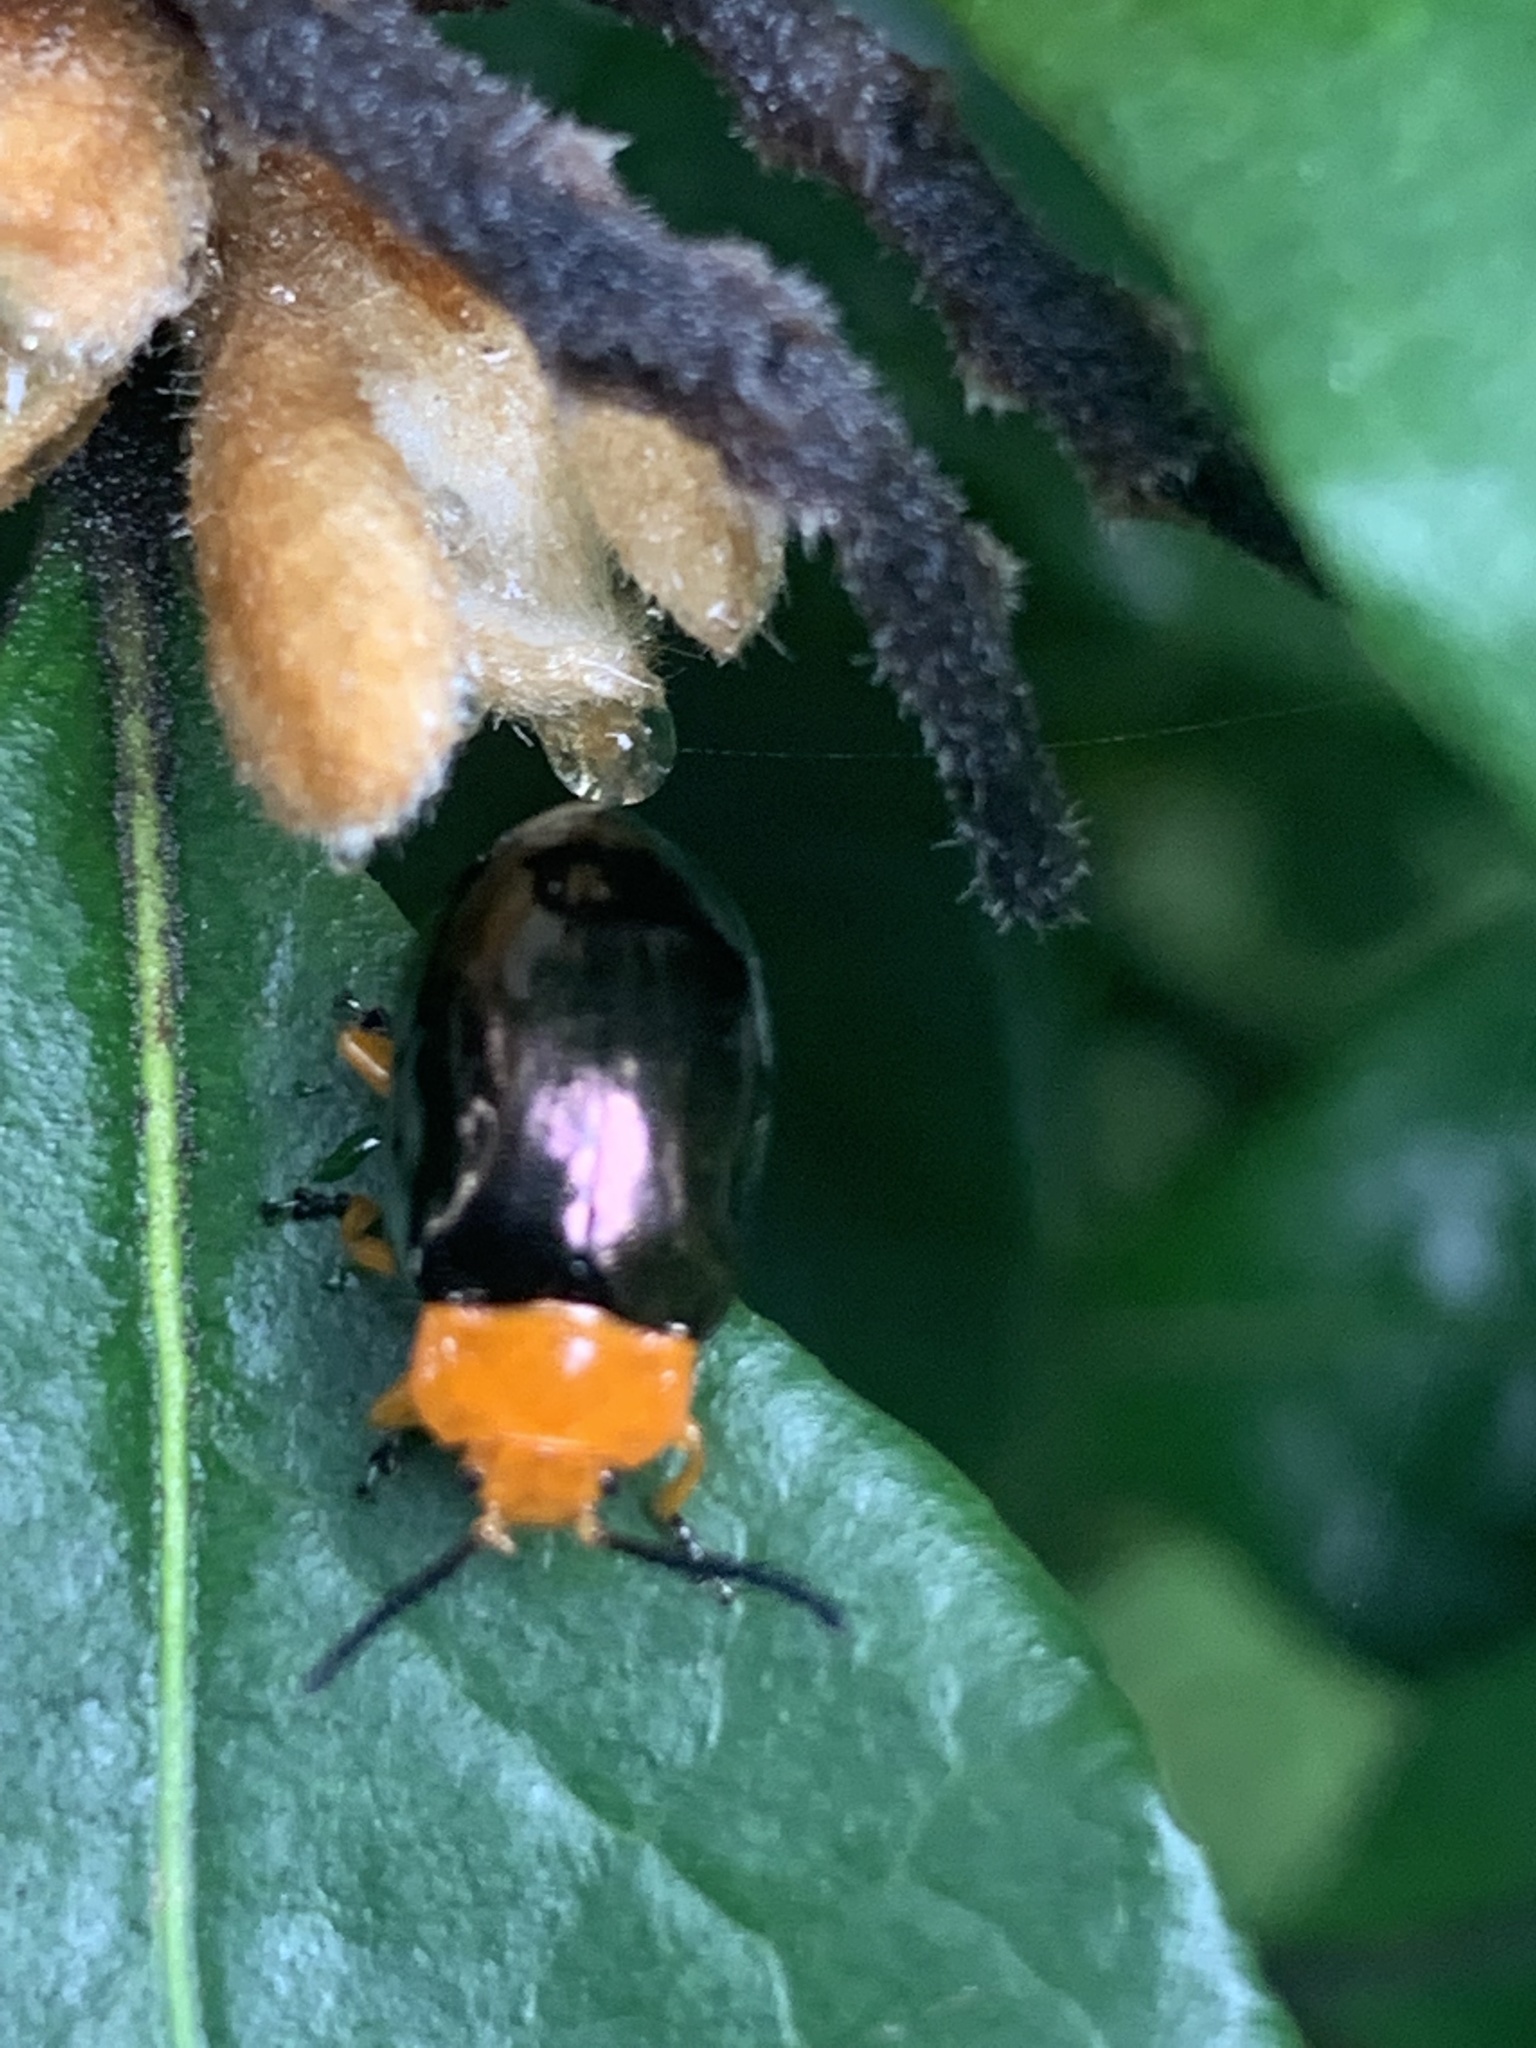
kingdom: Animalia
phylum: Arthropoda
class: Insecta
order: Coleoptera
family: Chrysomelidae
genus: Lamprolina
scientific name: Lamprolina
